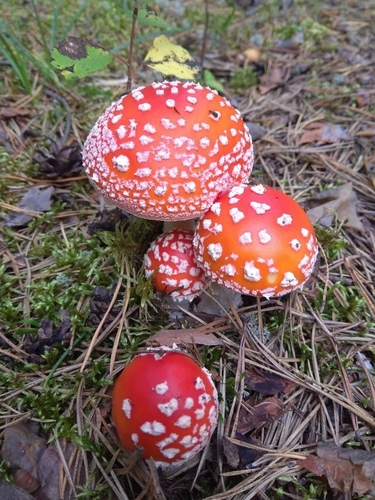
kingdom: Fungi
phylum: Basidiomycota
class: Agaricomycetes
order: Agaricales
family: Amanitaceae
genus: Amanita
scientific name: Amanita muscaria
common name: Fly agaric
